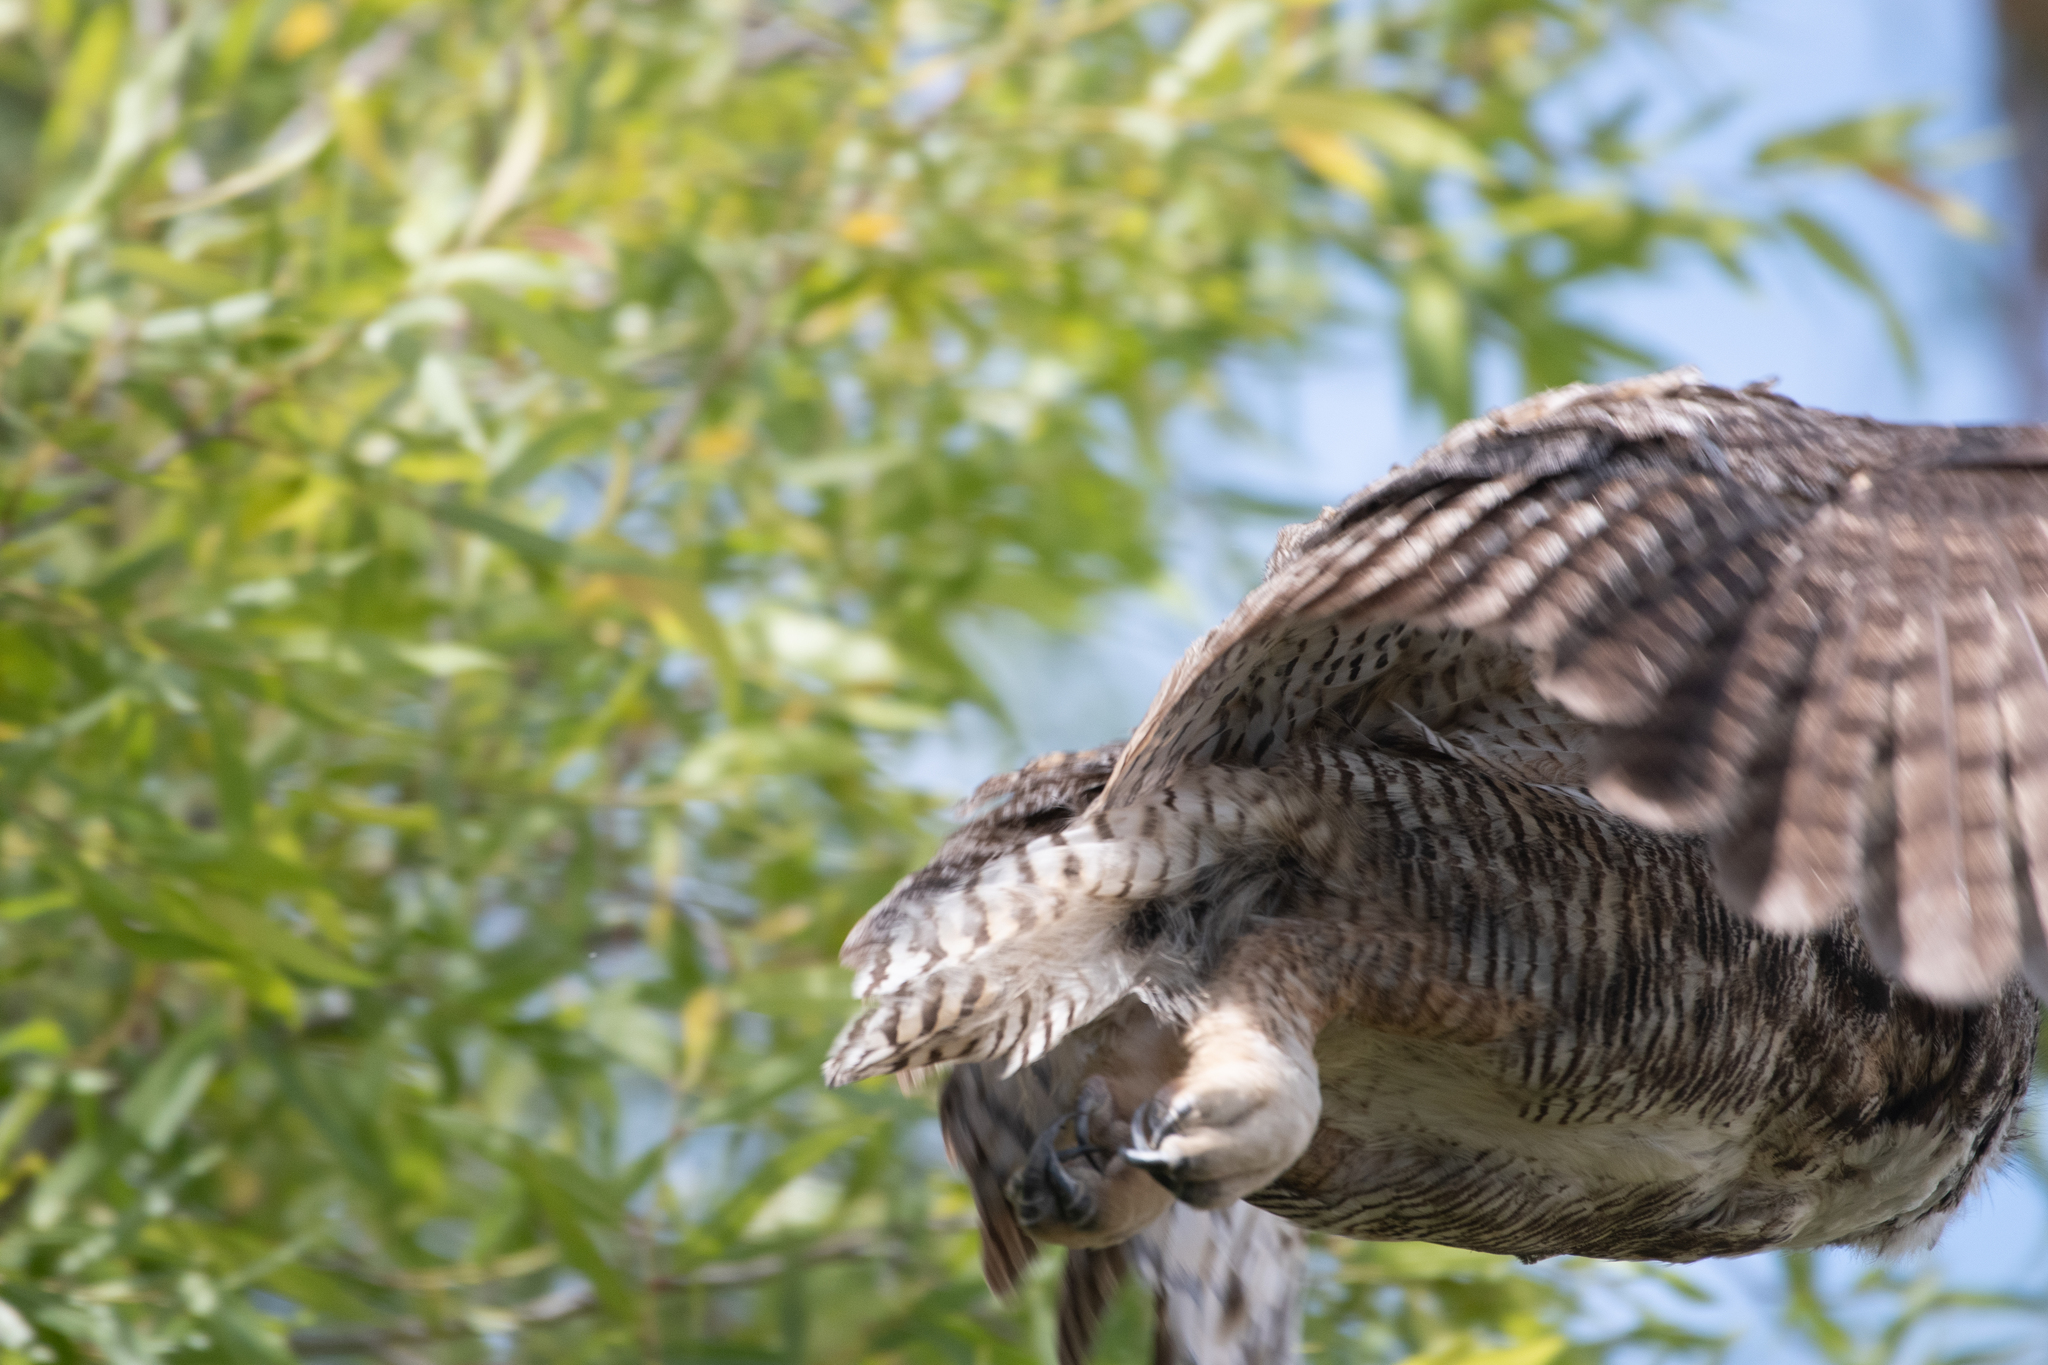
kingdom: Animalia
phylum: Chordata
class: Aves
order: Strigiformes
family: Strigidae
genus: Bubo
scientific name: Bubo virginianus
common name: Great horned owl
